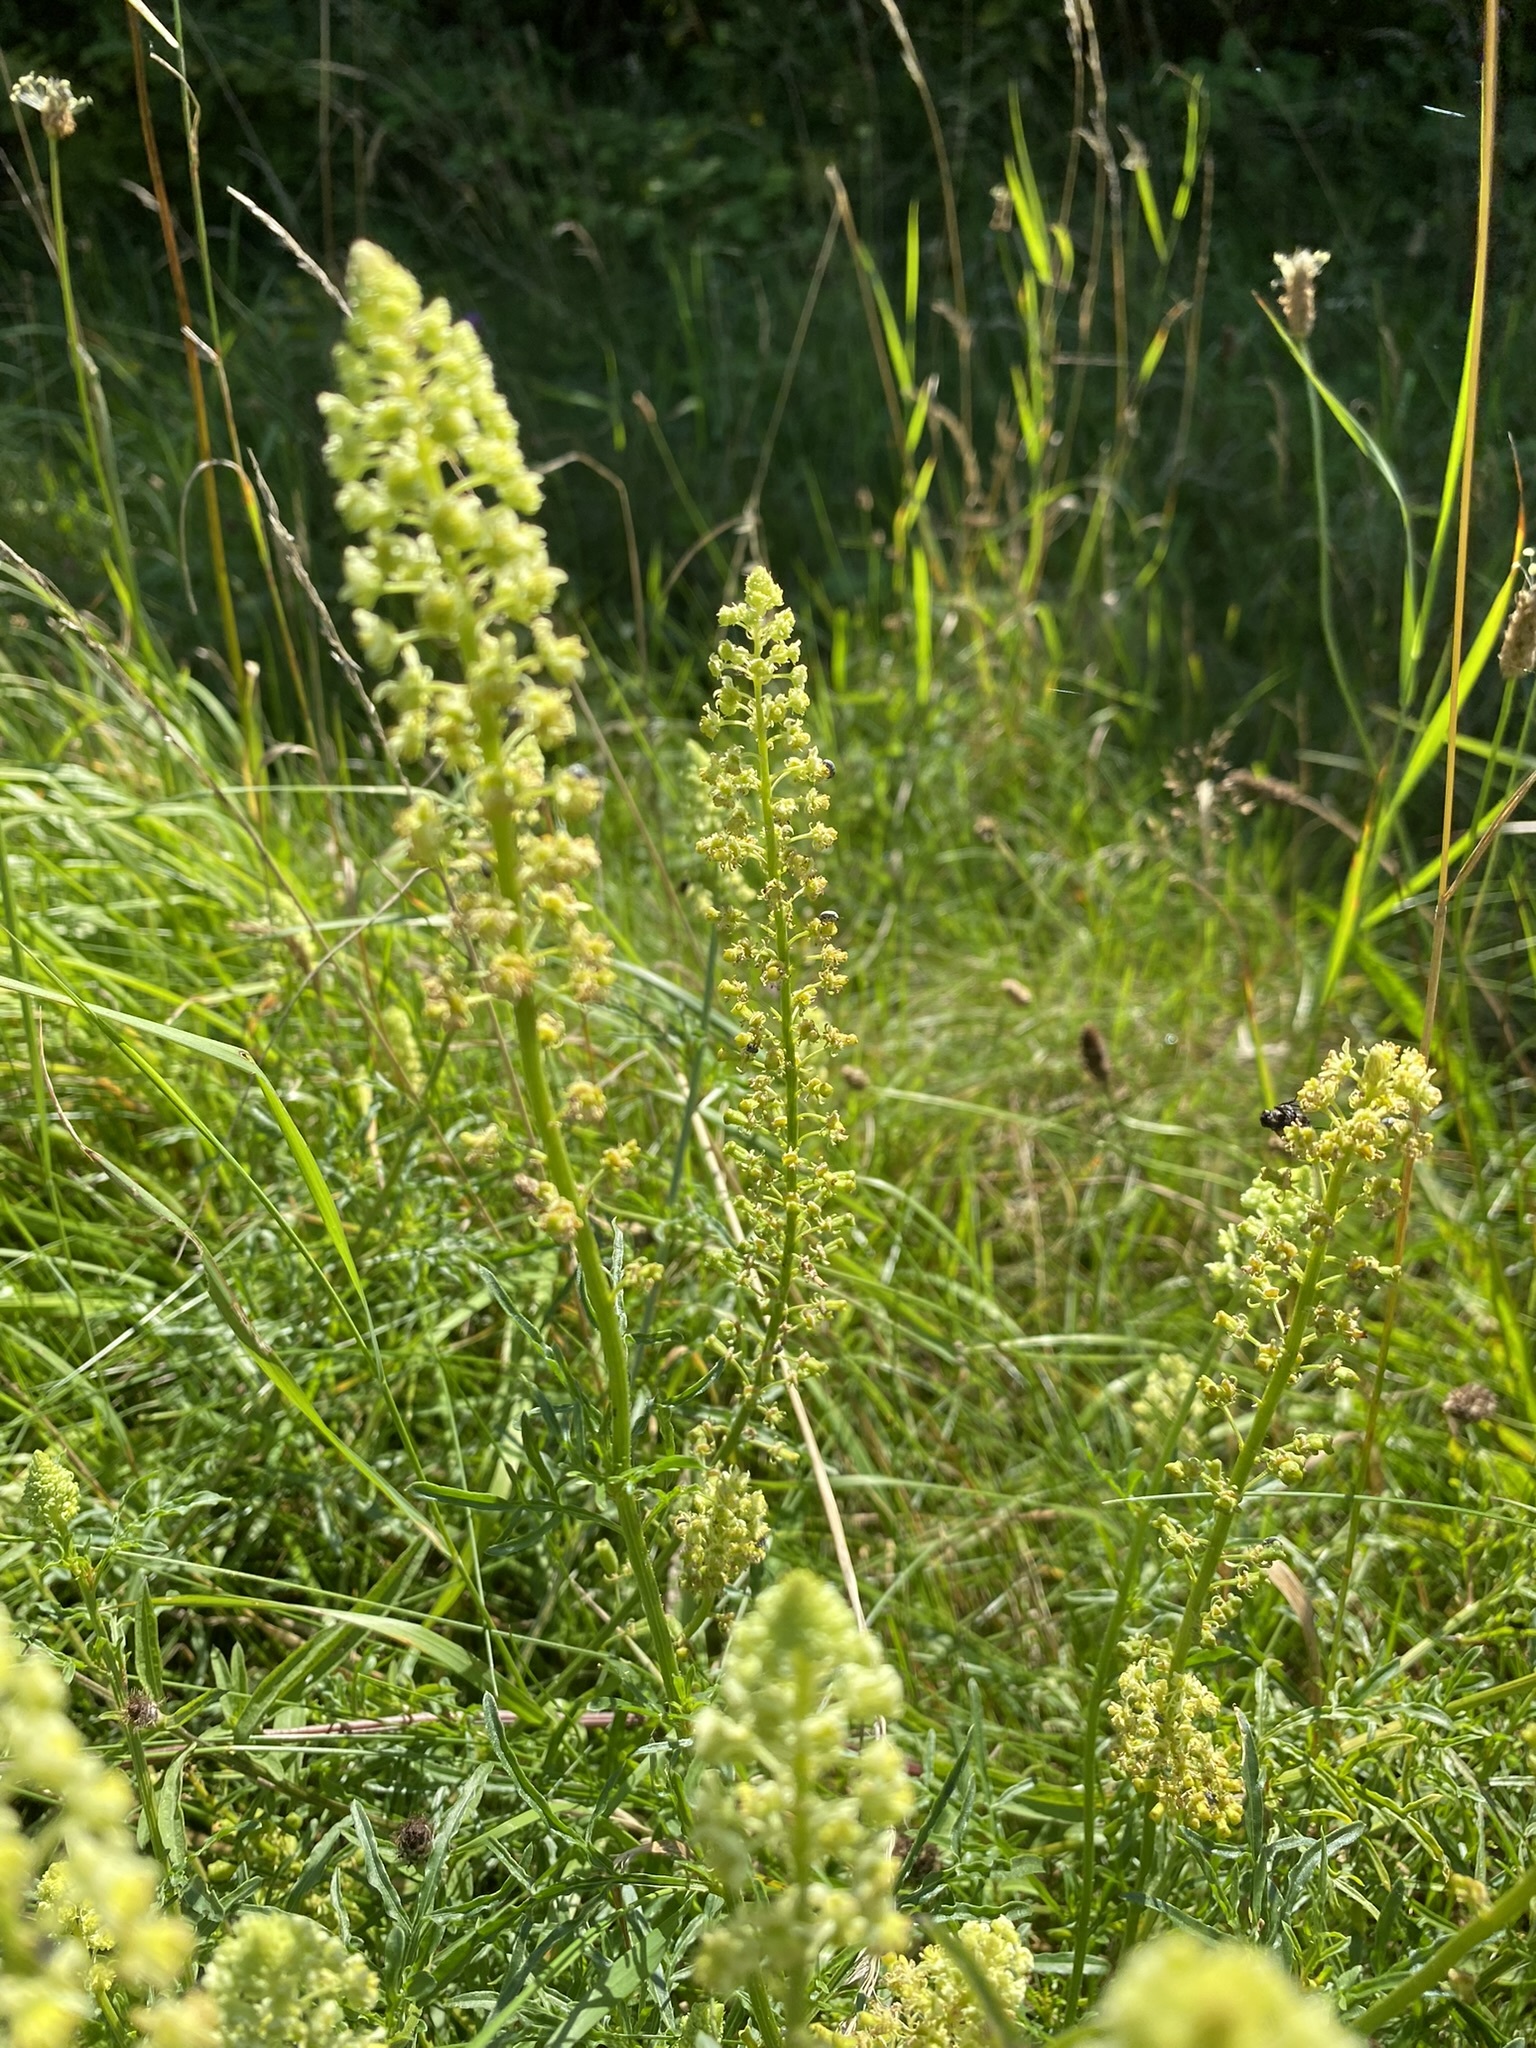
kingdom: Plantae
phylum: Tracheophyta
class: Magnoliopsida
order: Brassicales
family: Resedaceae
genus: Reseda
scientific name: Reseda lutea
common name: Wild mignonette
